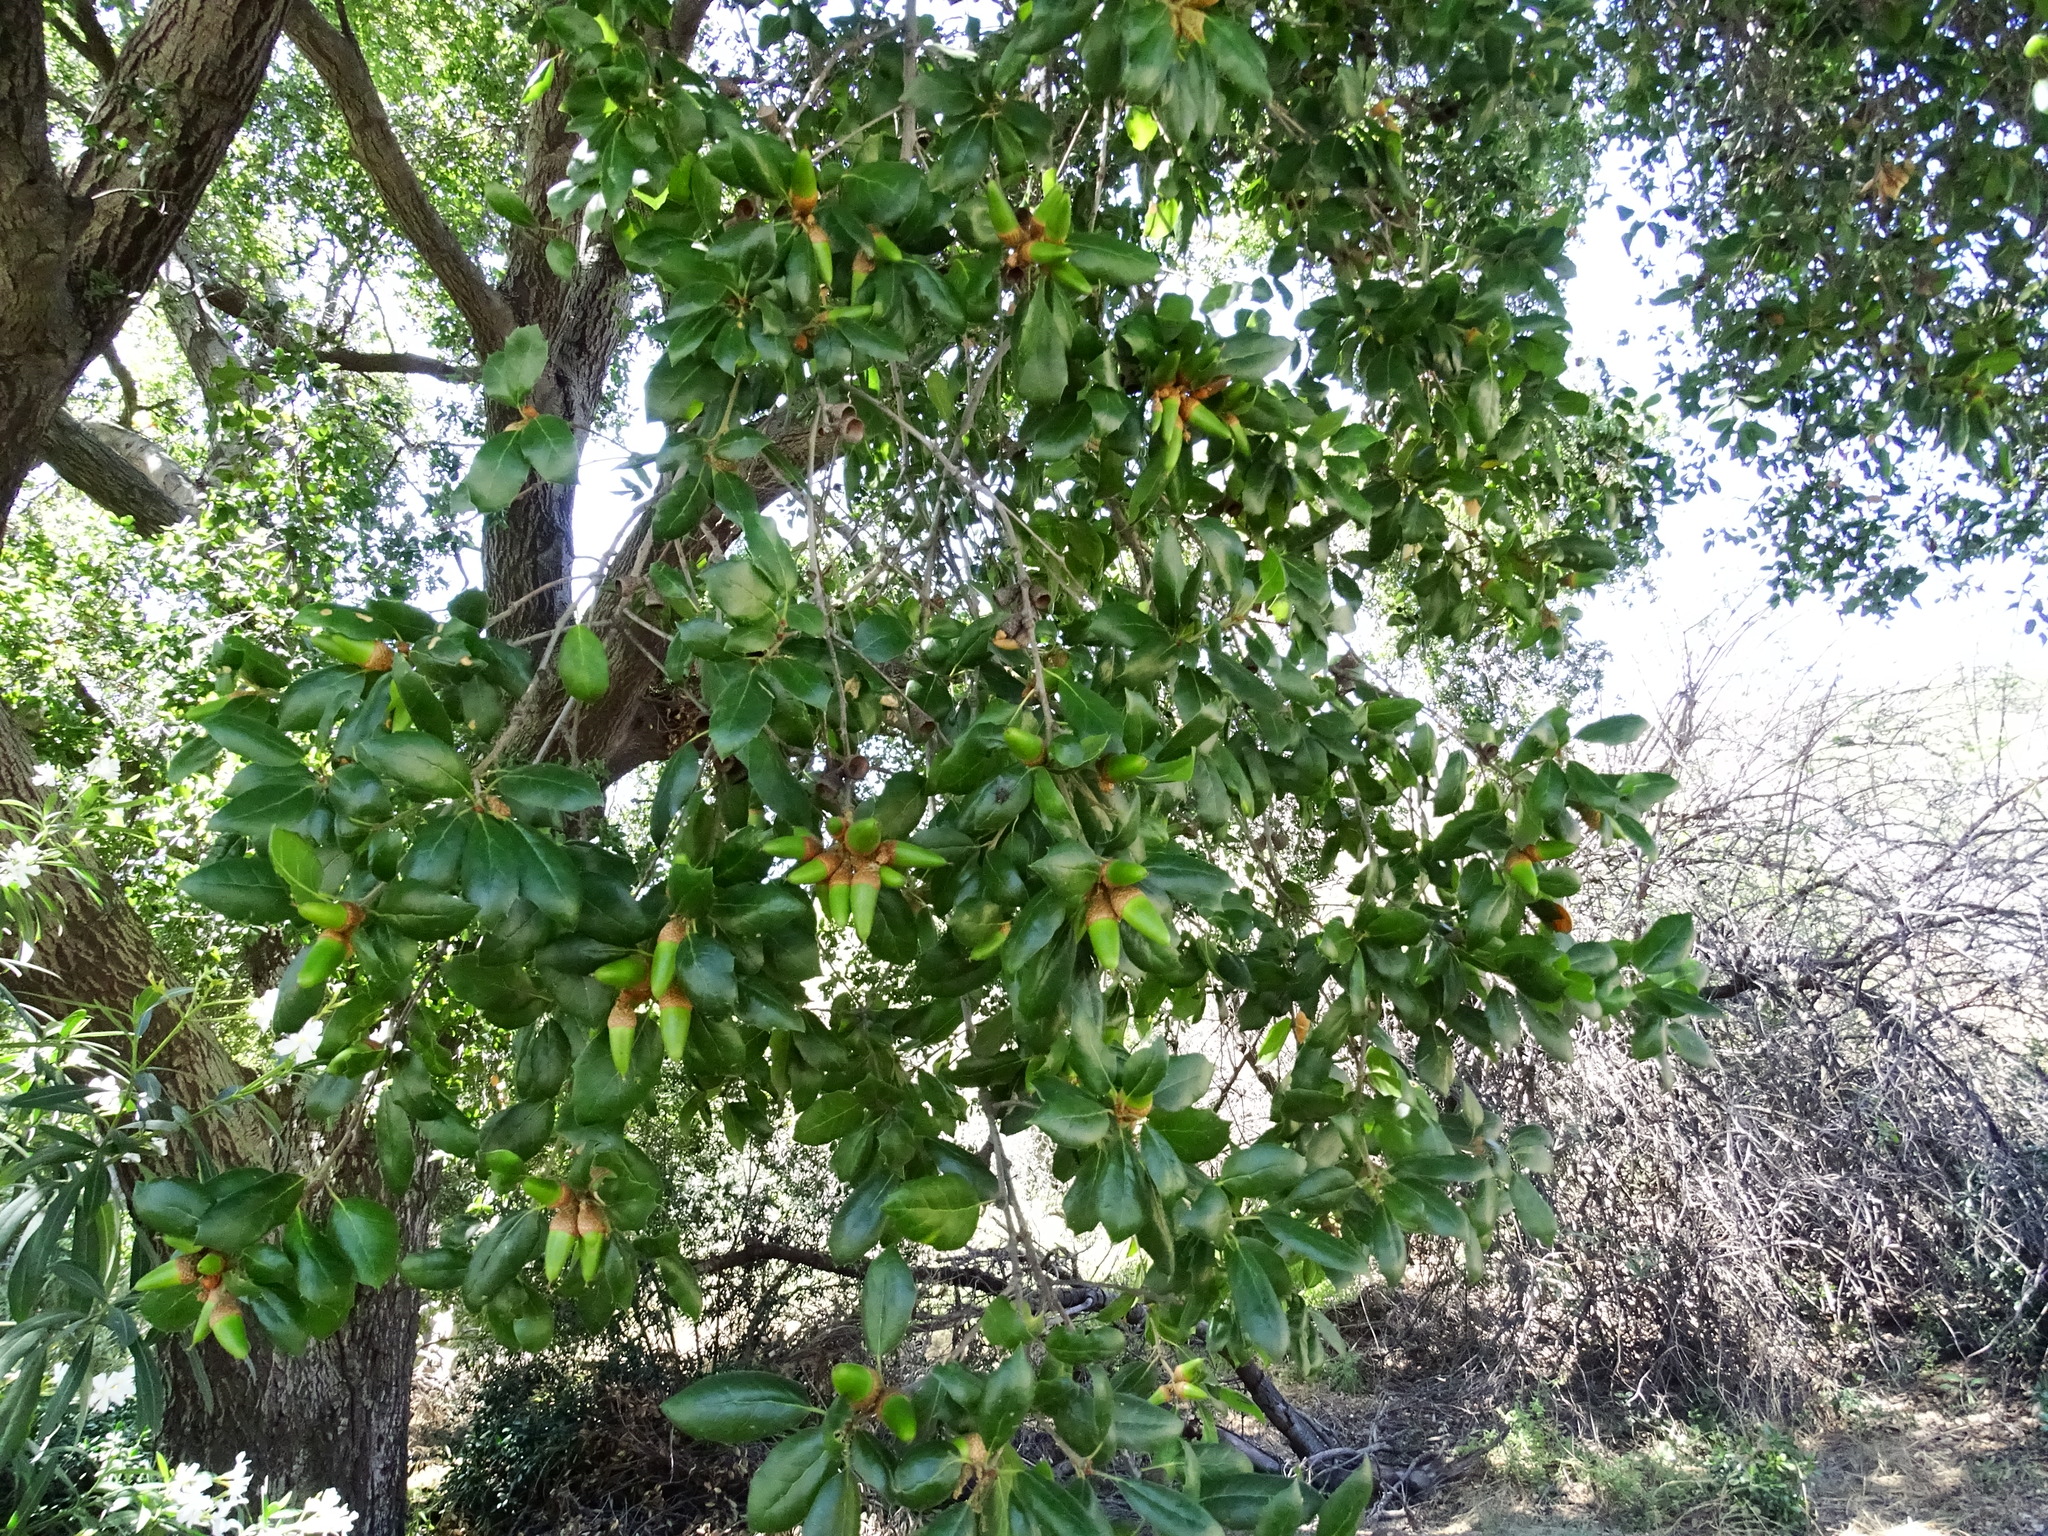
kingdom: Plantae
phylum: Tracheophyta
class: Magnoliopsida
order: Fagales
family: Fagaceae
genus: Quercus
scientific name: Quercus agrifolia
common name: California live oak
